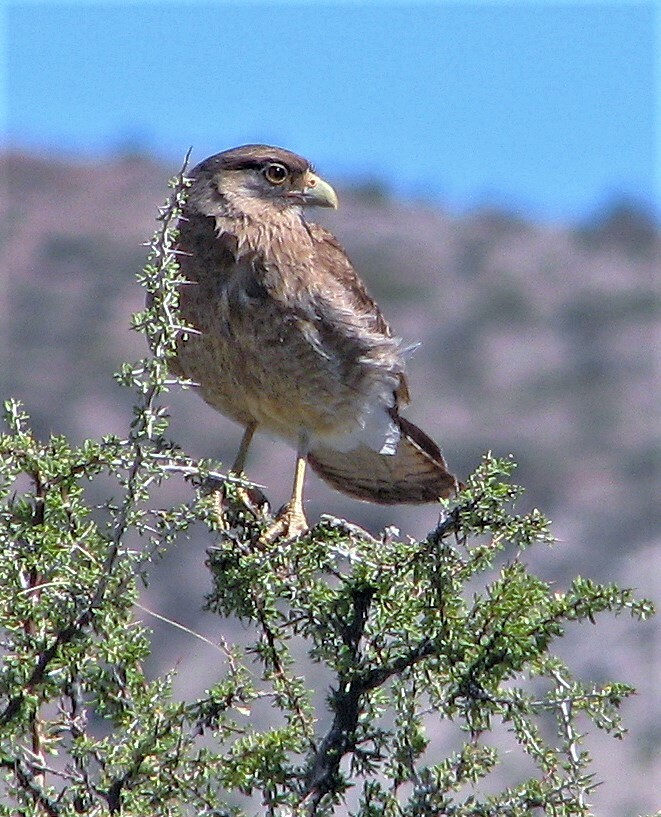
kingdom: Animalia
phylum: Chordata
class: Aves
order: Falconiformes
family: Falconidae
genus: Daptrius
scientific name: Daptrius
